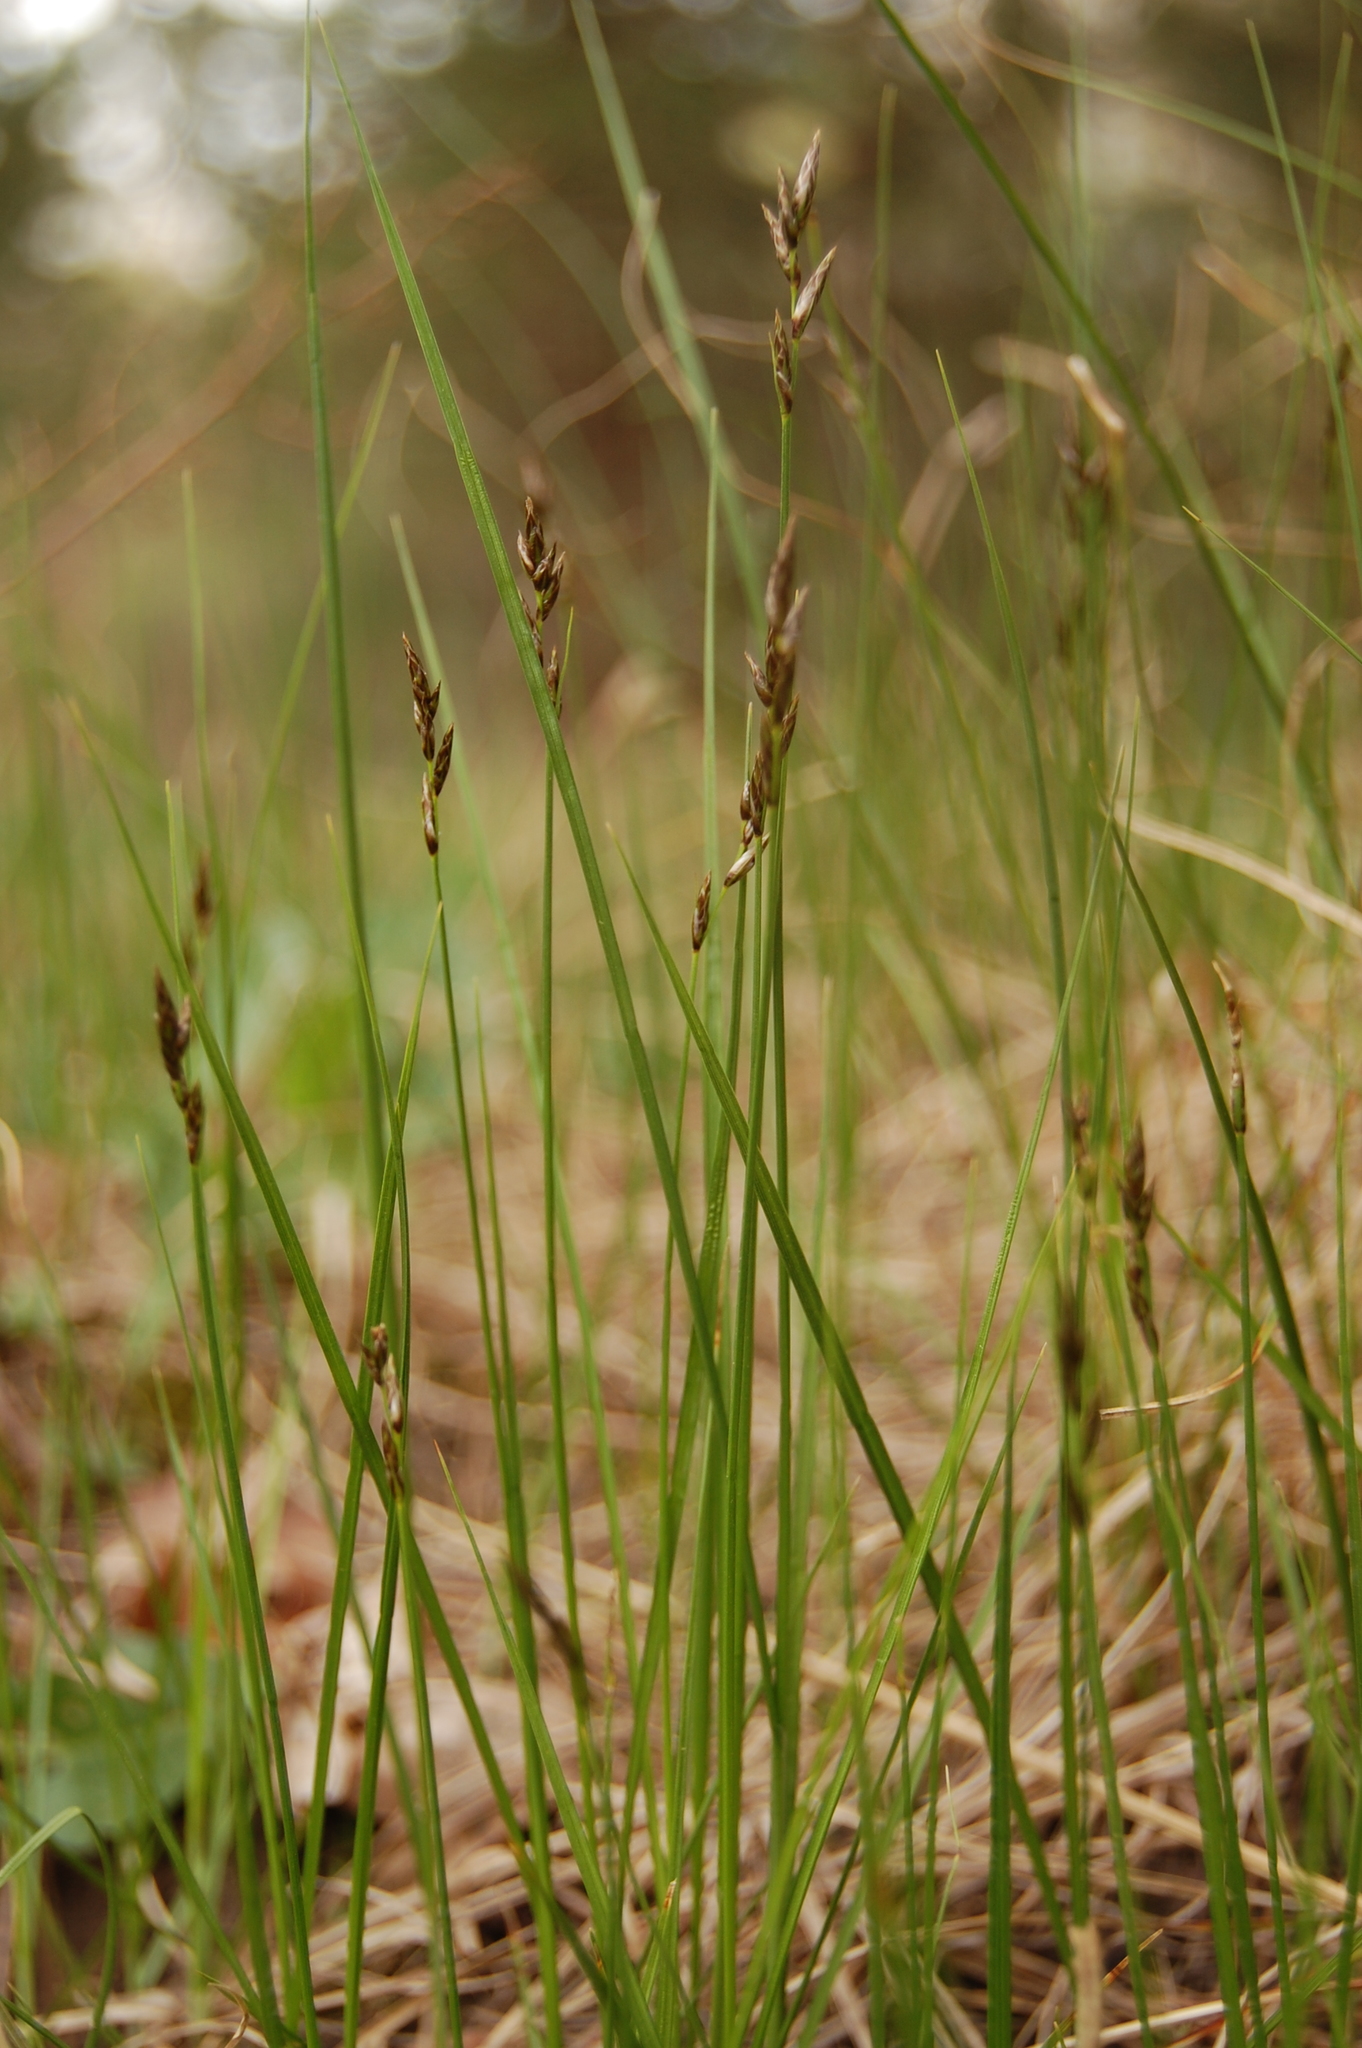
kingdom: Plantae
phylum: Tracheophyta
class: Liliopsida
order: Poales
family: Cyperaceae
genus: Carex
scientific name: Carex praecox
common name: Early sedge
